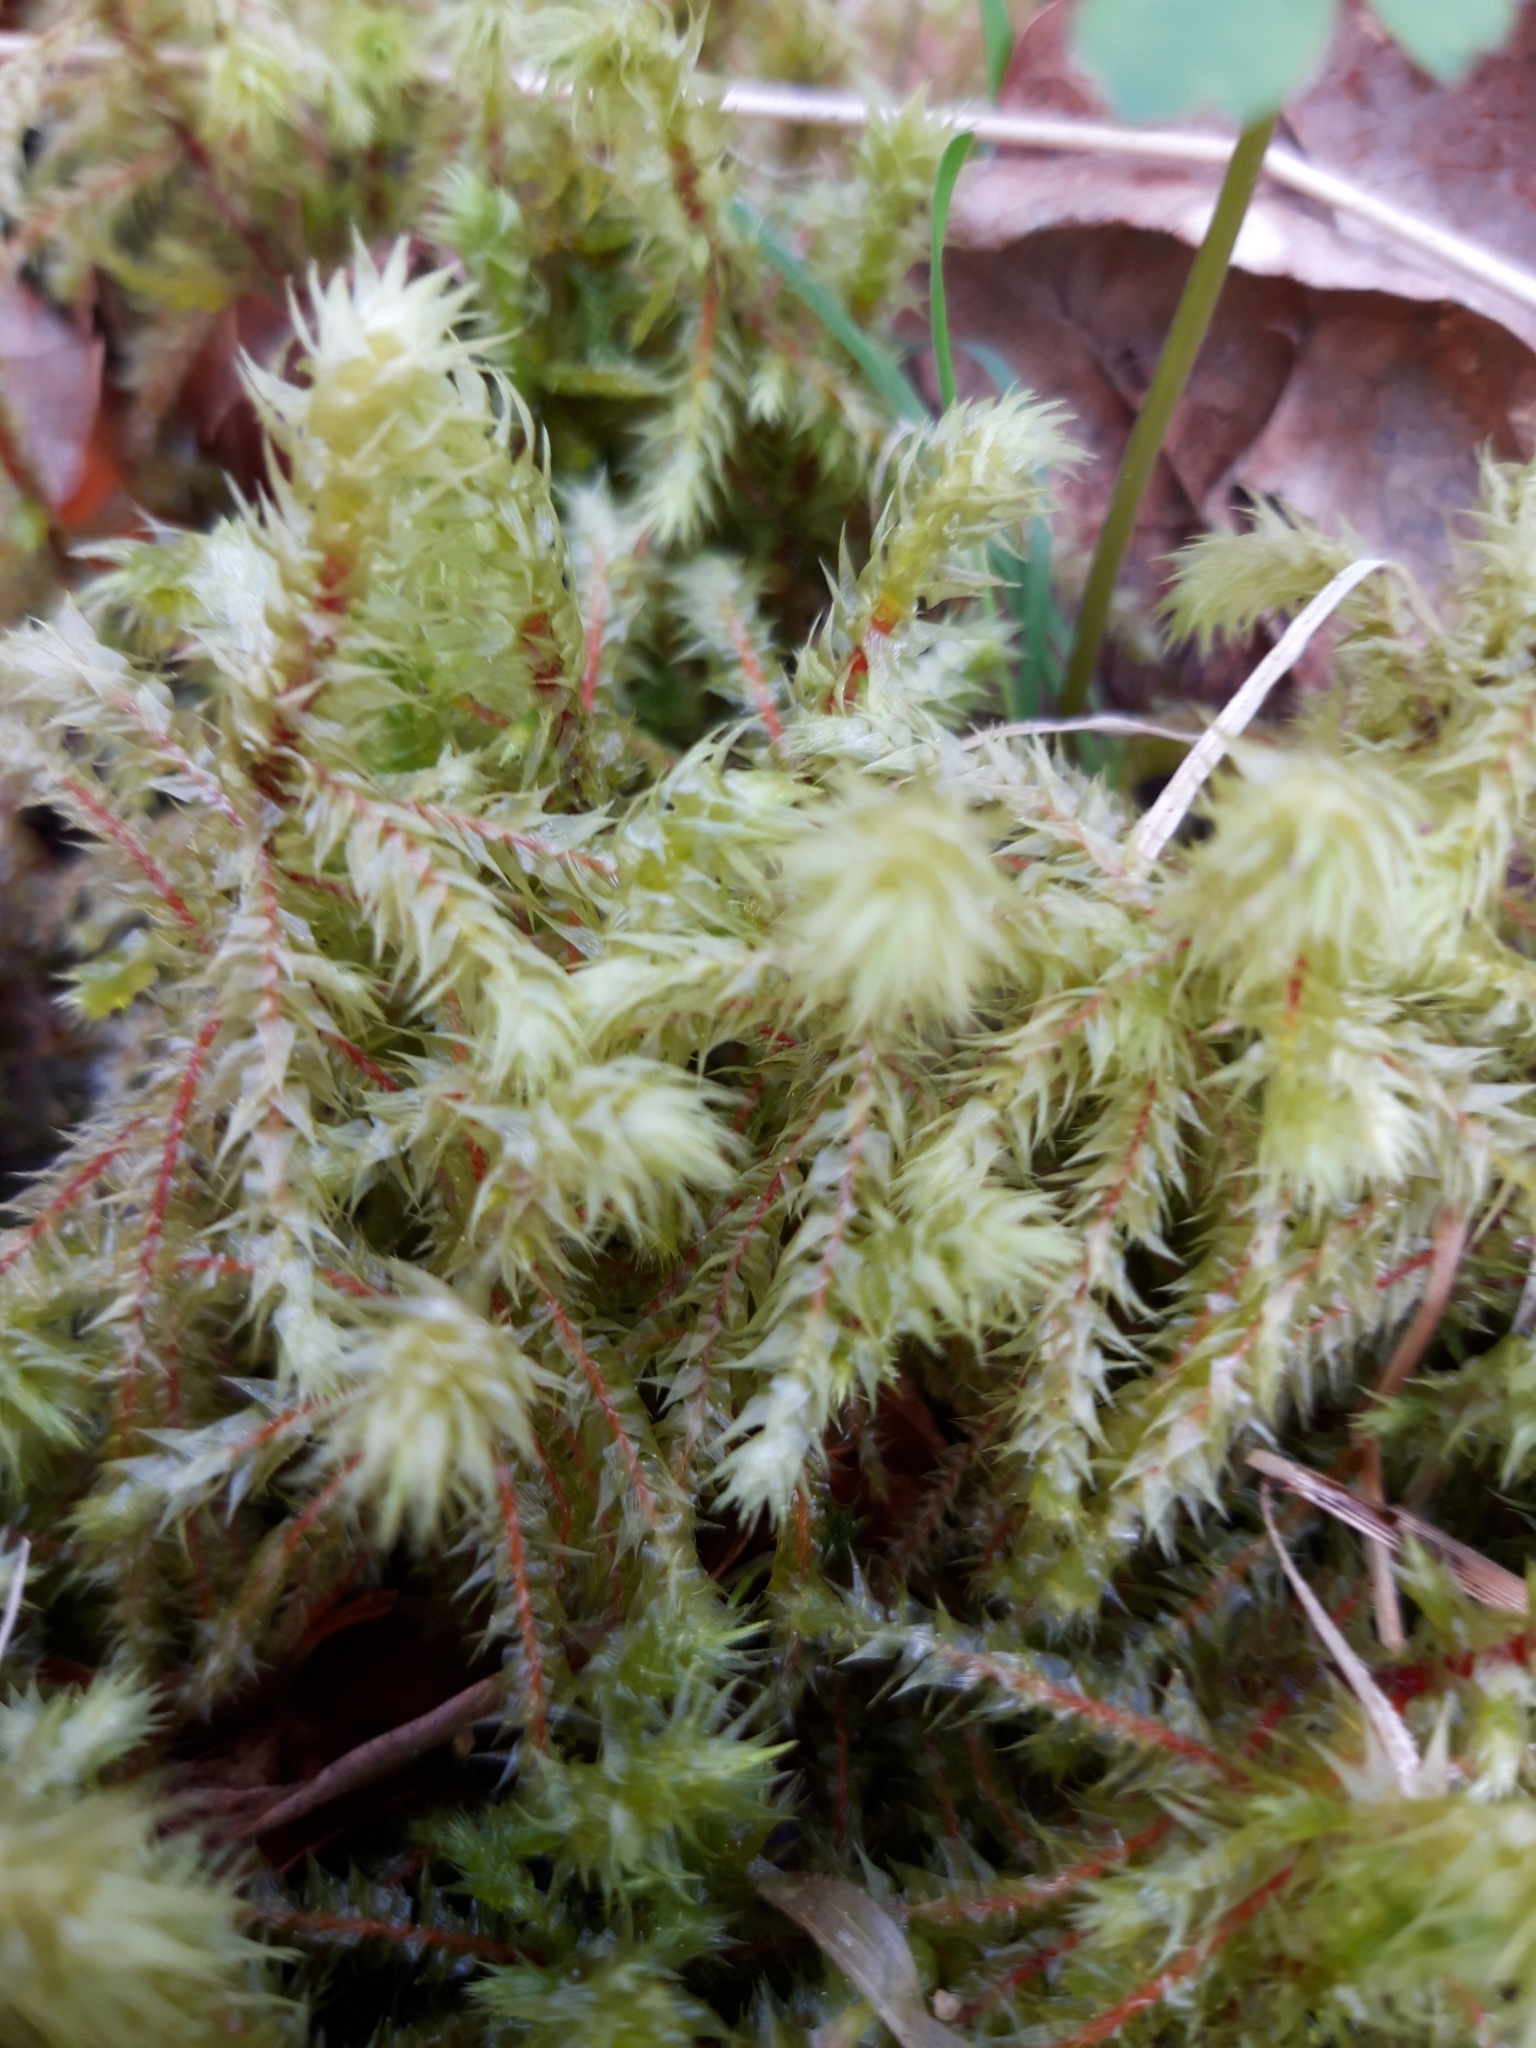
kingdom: Plantae
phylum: Bryophyta
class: Bryopsida
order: Hypnales
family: Hylocomiaceae
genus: Hylocomiadelphus
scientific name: Hylocomiadelphus triquetrus
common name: Rough goose neck moss
